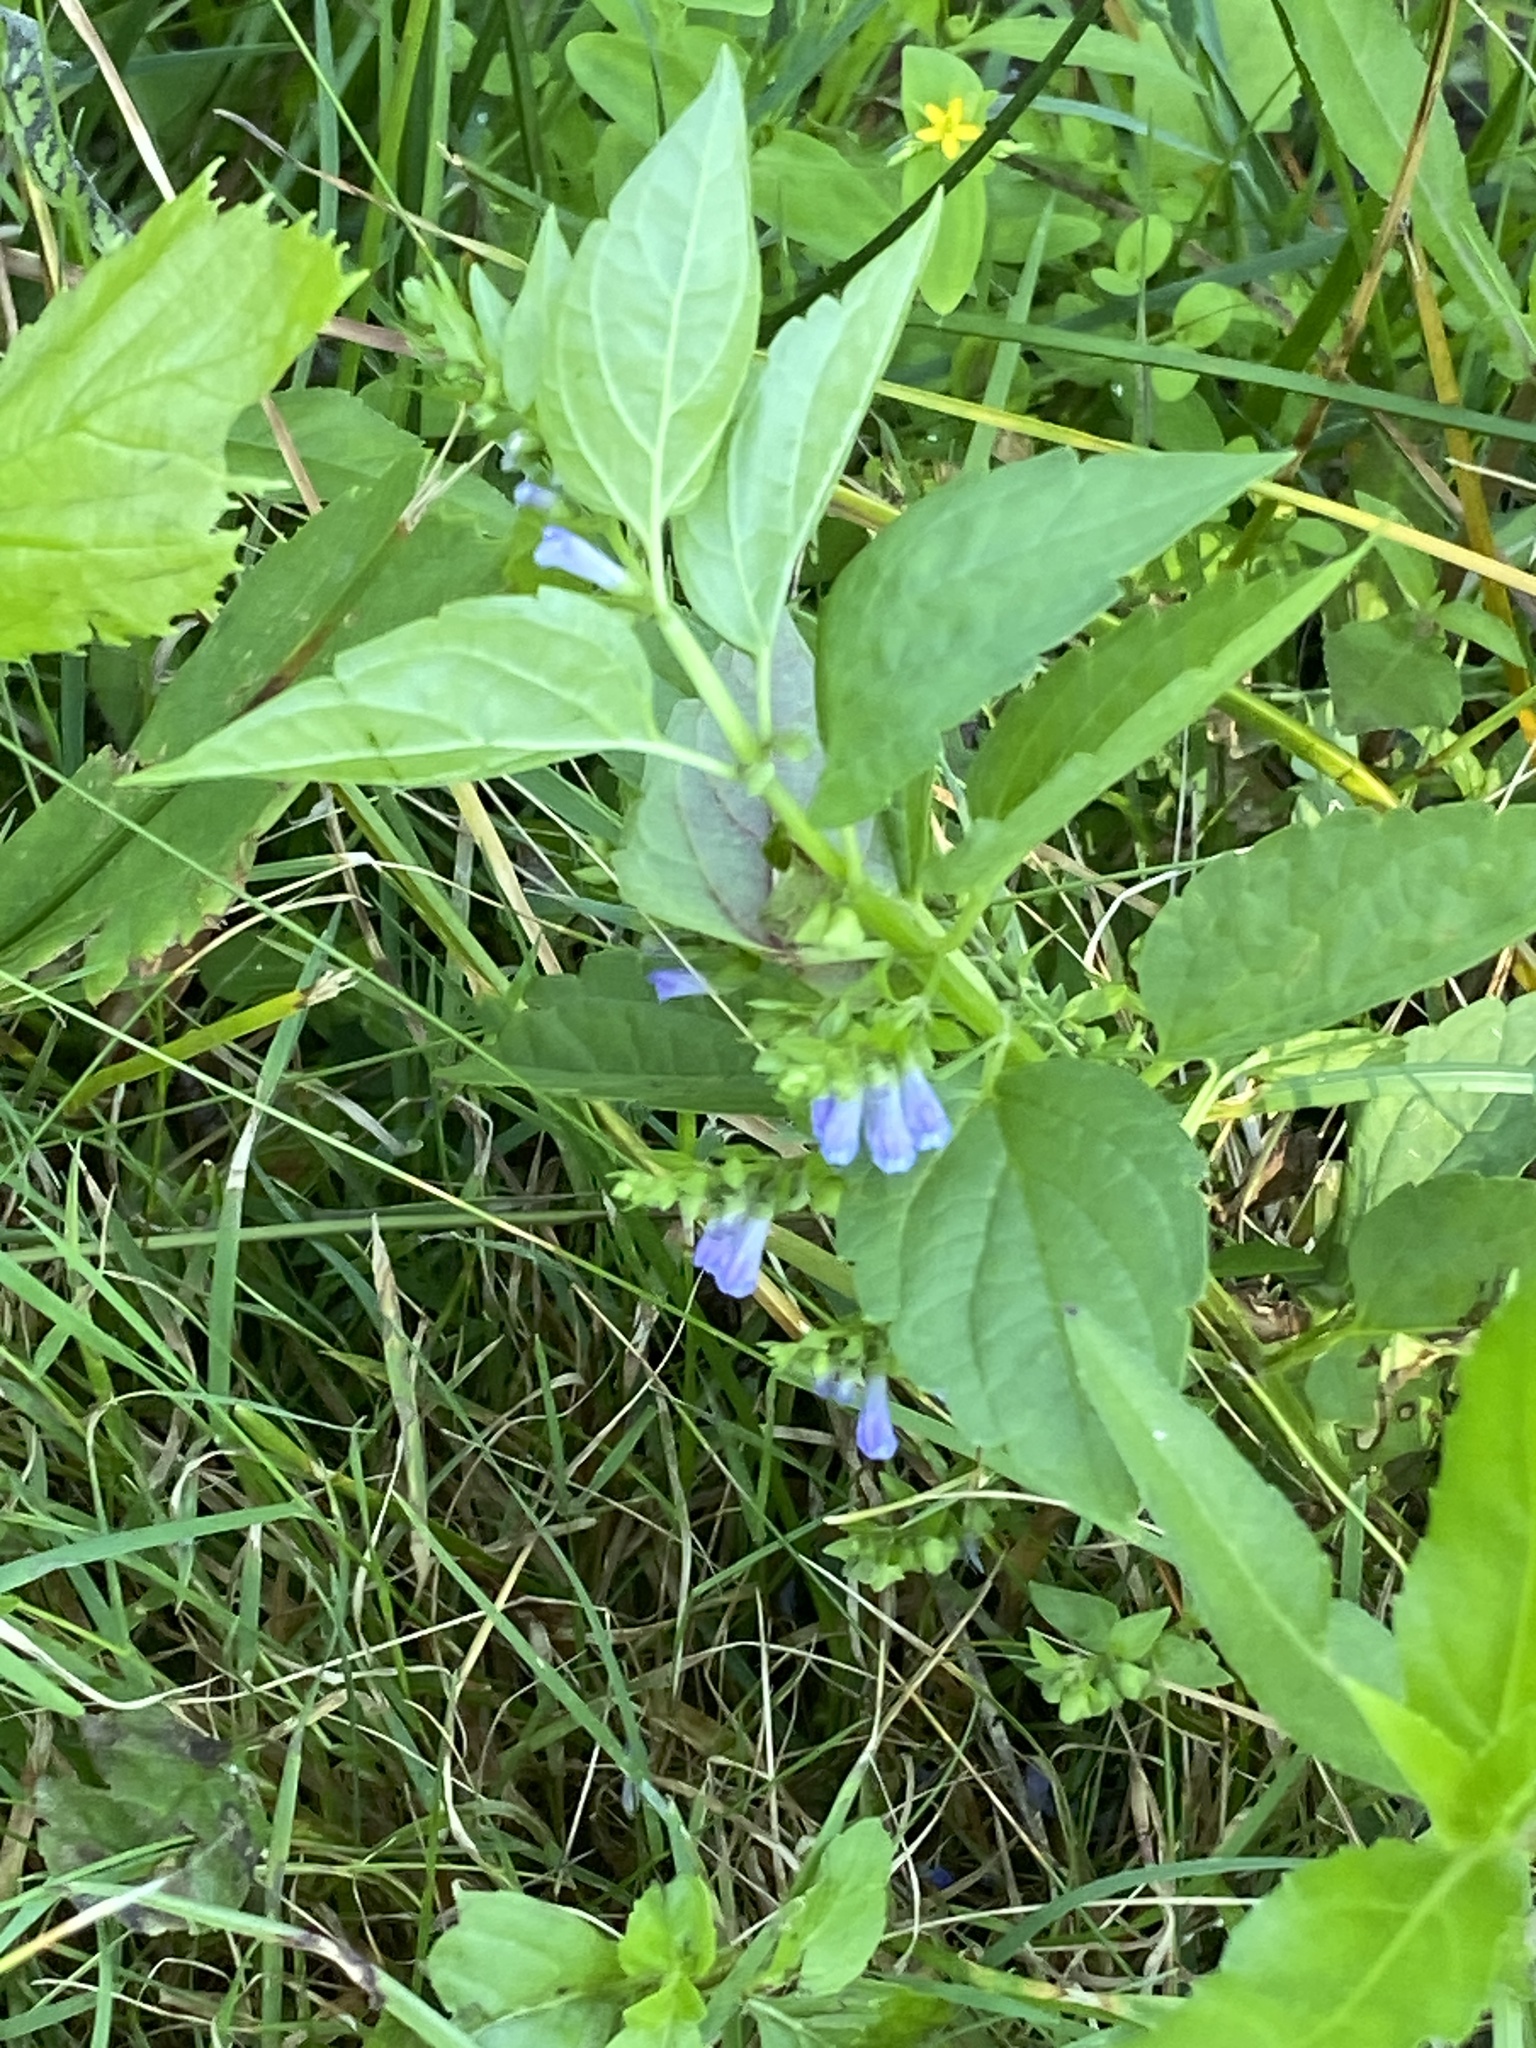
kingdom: Plantae
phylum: Tracheophyta
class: Magnoliopsida
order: Lamiales
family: Lamiaceae
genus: Scutellaria
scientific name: Scutellaria lateriflora
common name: Blue skullcap
